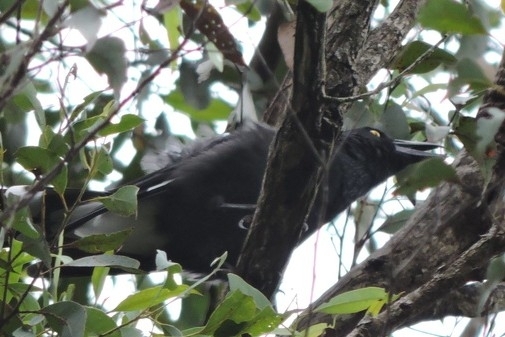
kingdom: Animalia
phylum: Chordata
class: Aves
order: Passeriformes
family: Cracticidae
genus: Strepera
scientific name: Strepera graculina
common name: Pied currawong
